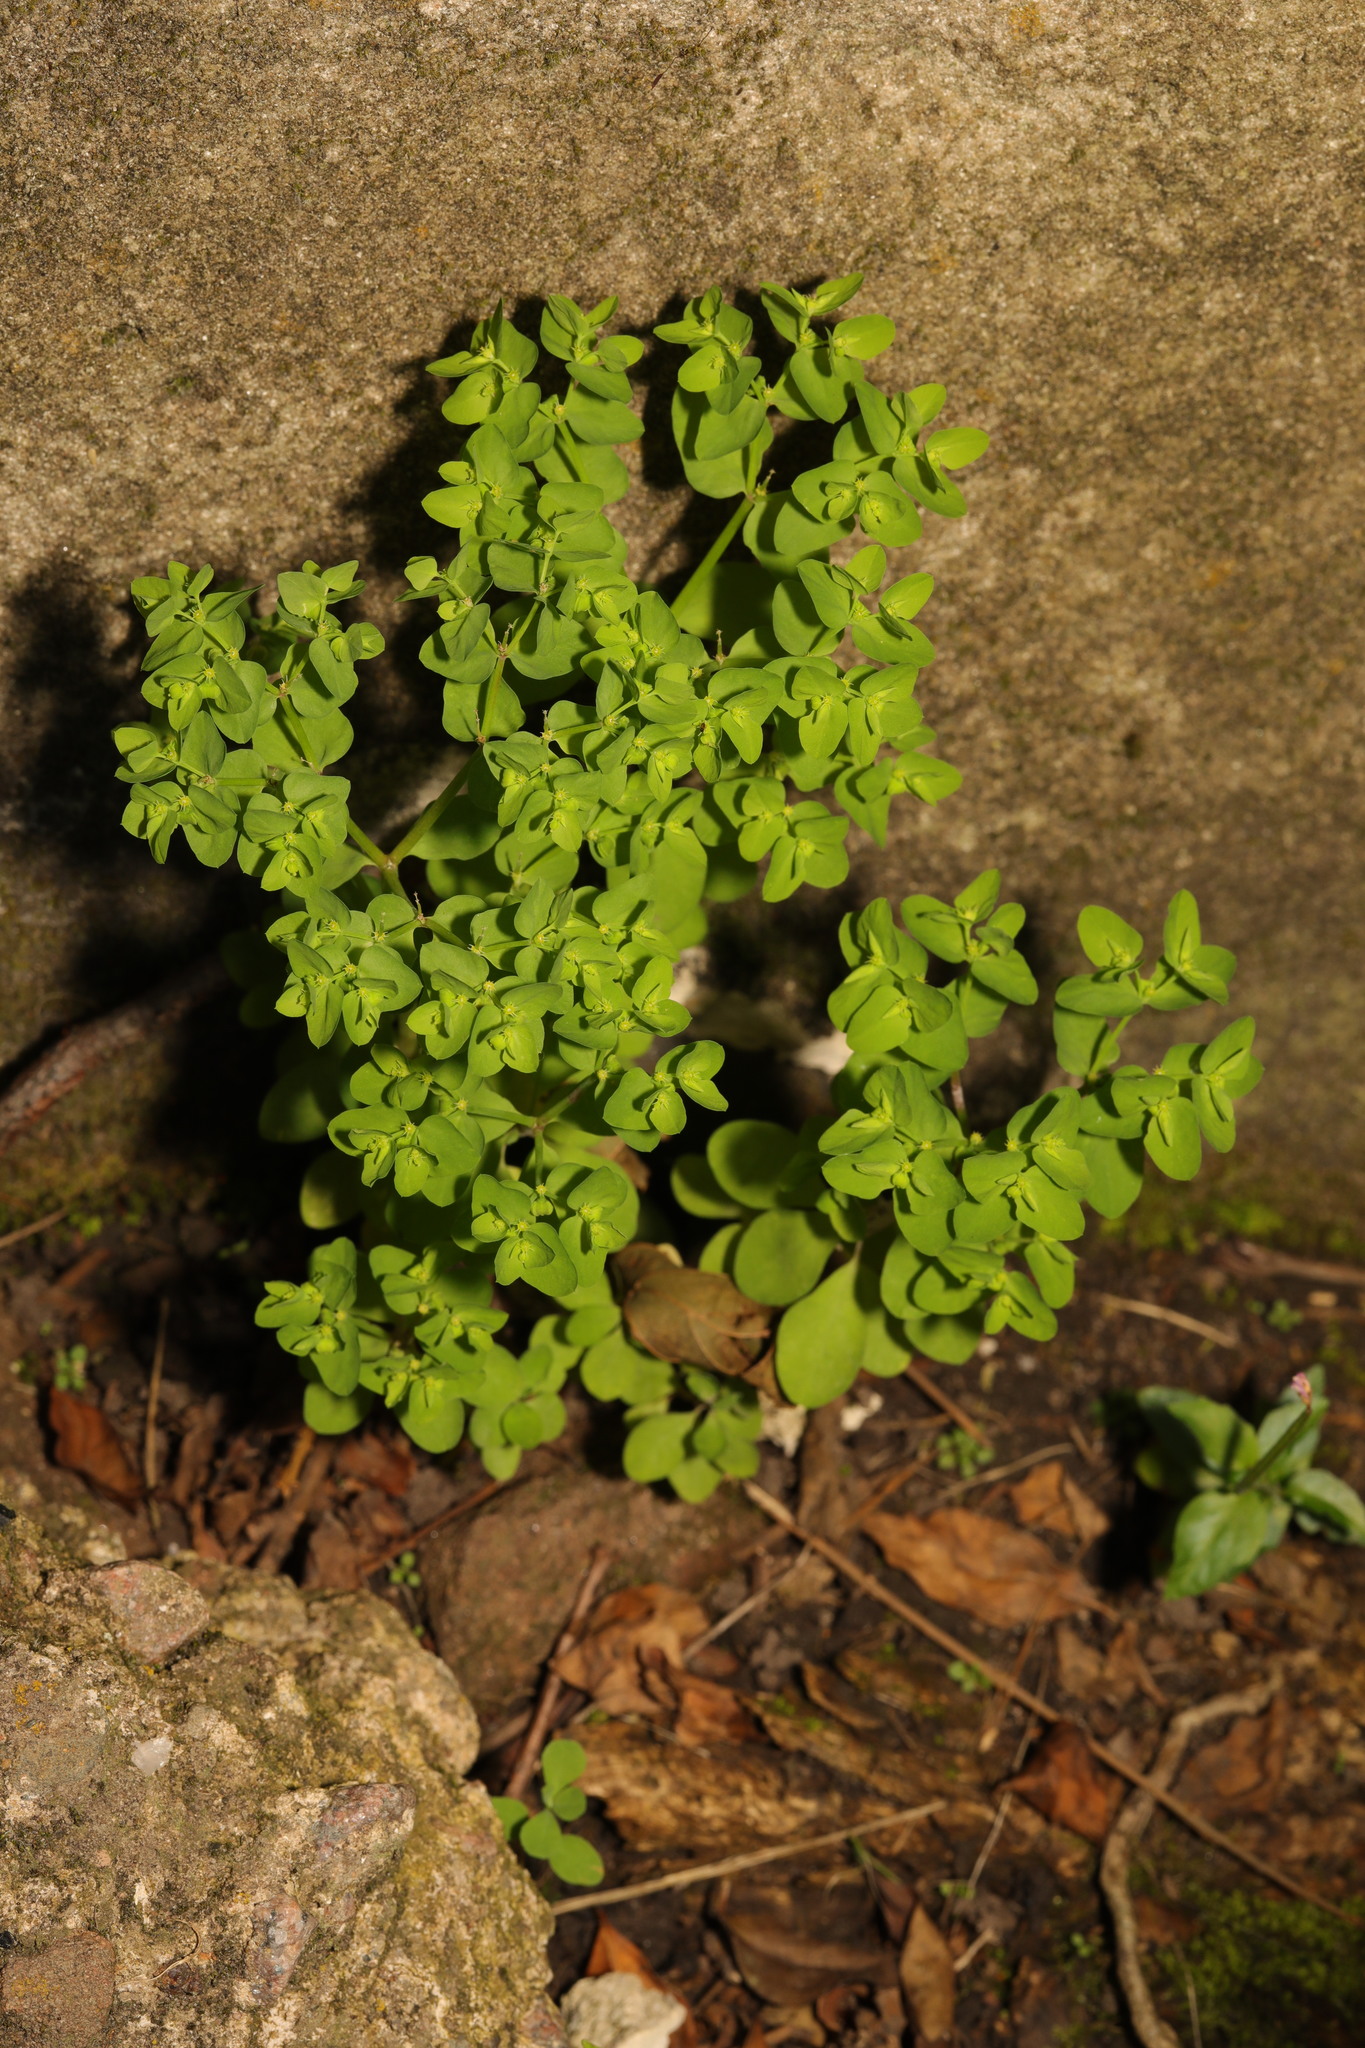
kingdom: Plantae
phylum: Tracheophyta
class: Magnoliopsida
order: Malpighiales
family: Euphorbiaceae
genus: Euphorbia
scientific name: Euphorbia peplus
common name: Petty spurge
